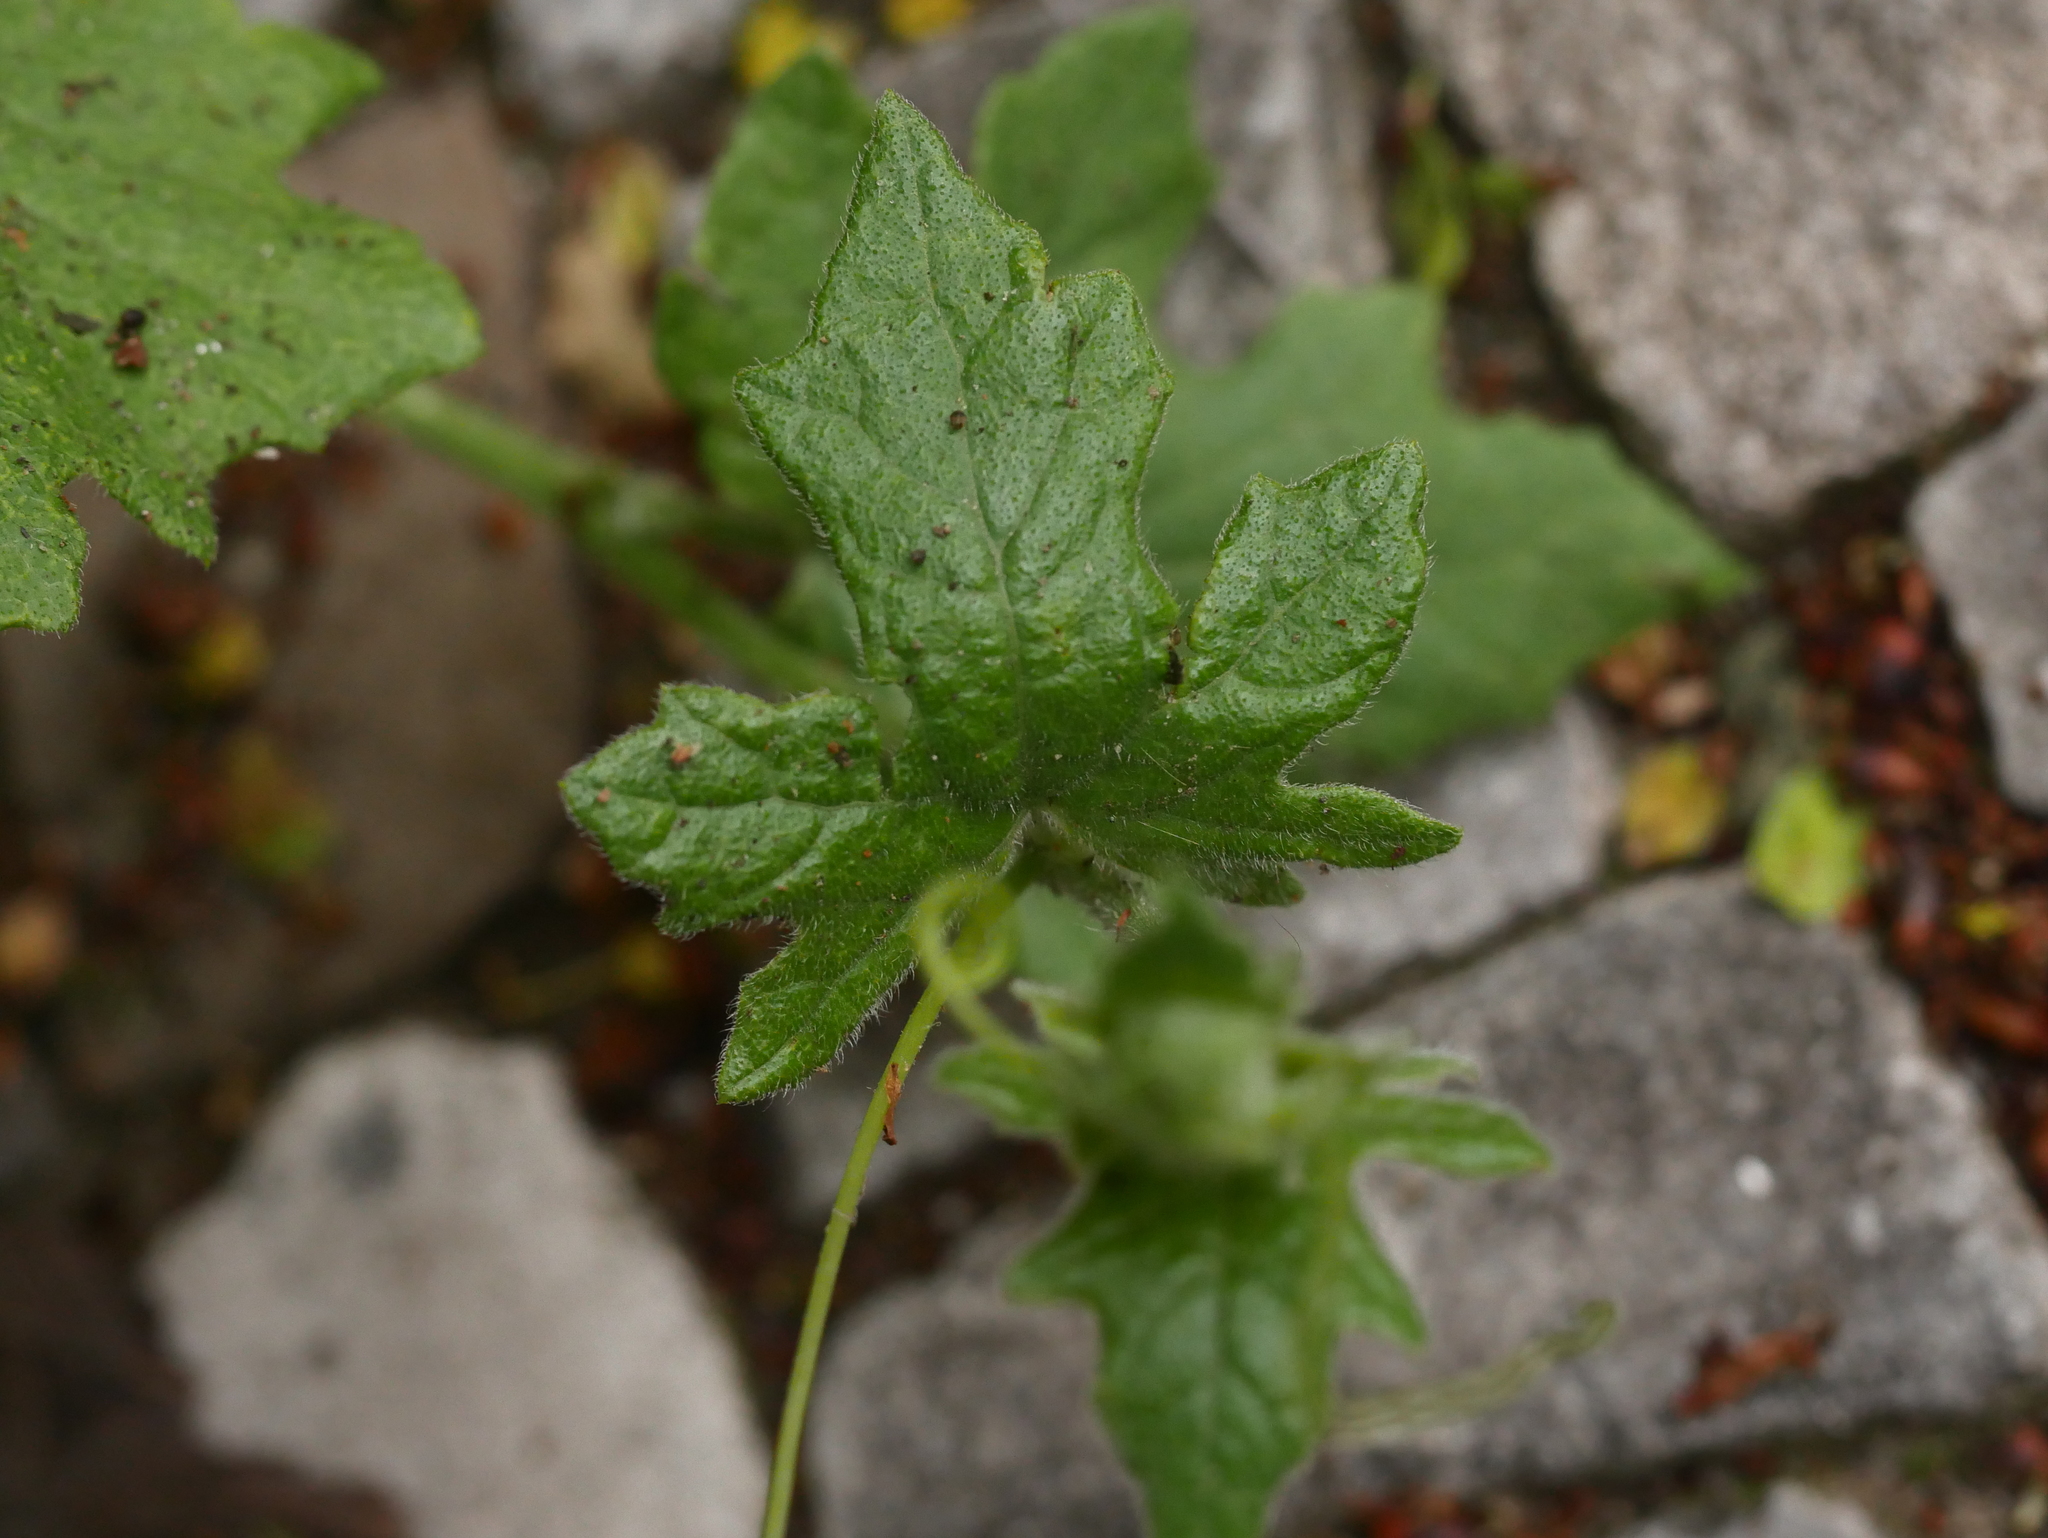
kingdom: Plantae
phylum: Tracheophyta
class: Magnoliopsida
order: Cucurbitales
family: Cucurbitaceae
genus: Bryonia
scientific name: Bryonia cretica
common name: Cretan bryony
